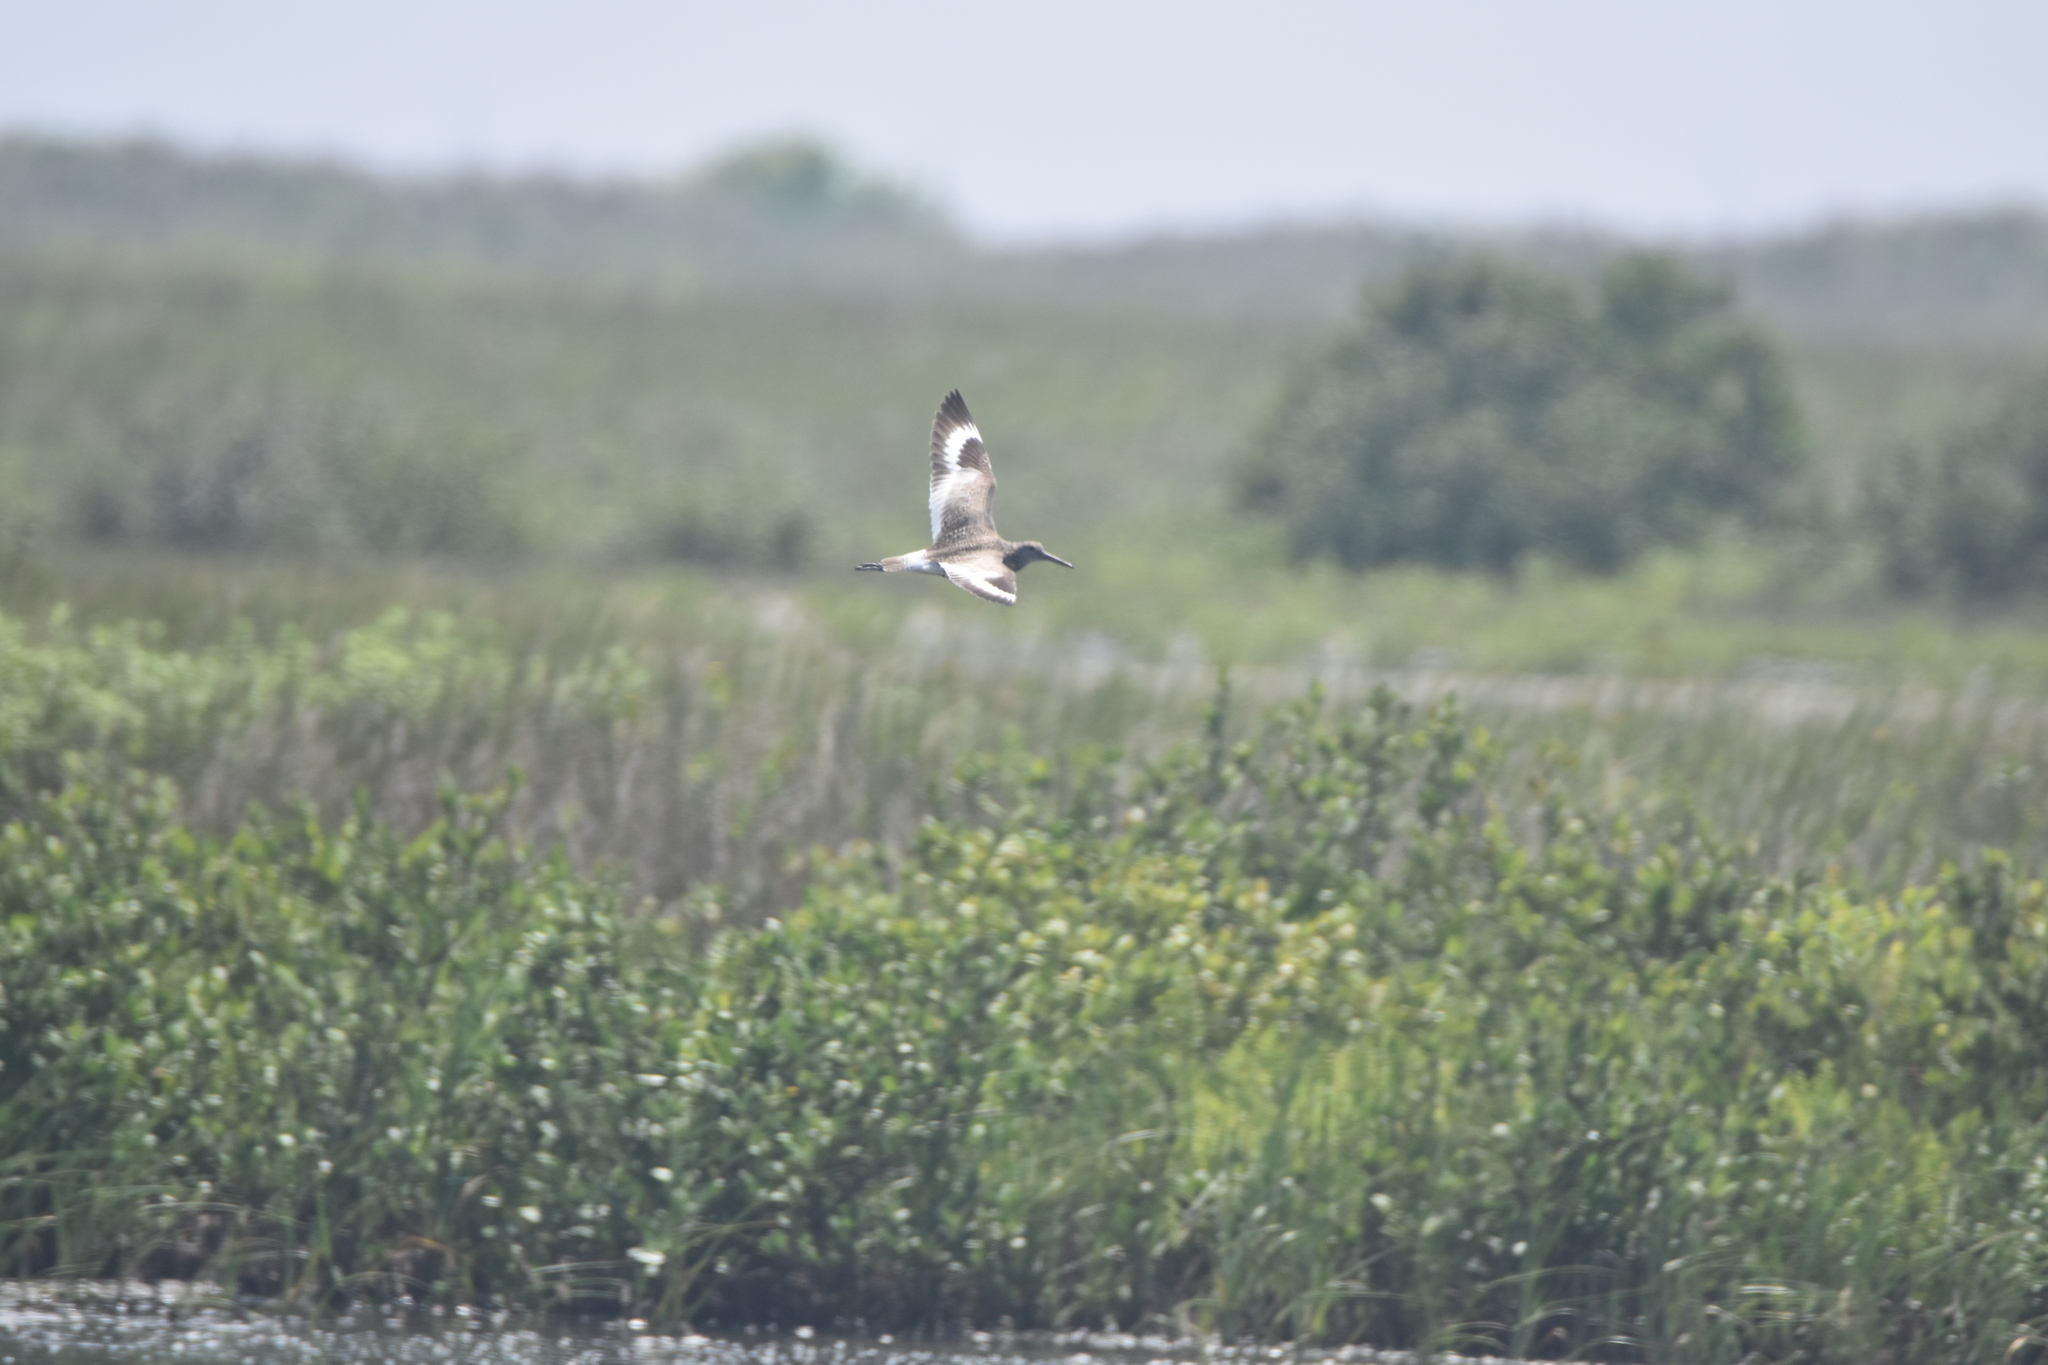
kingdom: Animalia
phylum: Chordata
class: Aves
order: Charadriiformes
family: Scolopacidae
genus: Tringa
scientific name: Tringa semipalmata
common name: Willet
